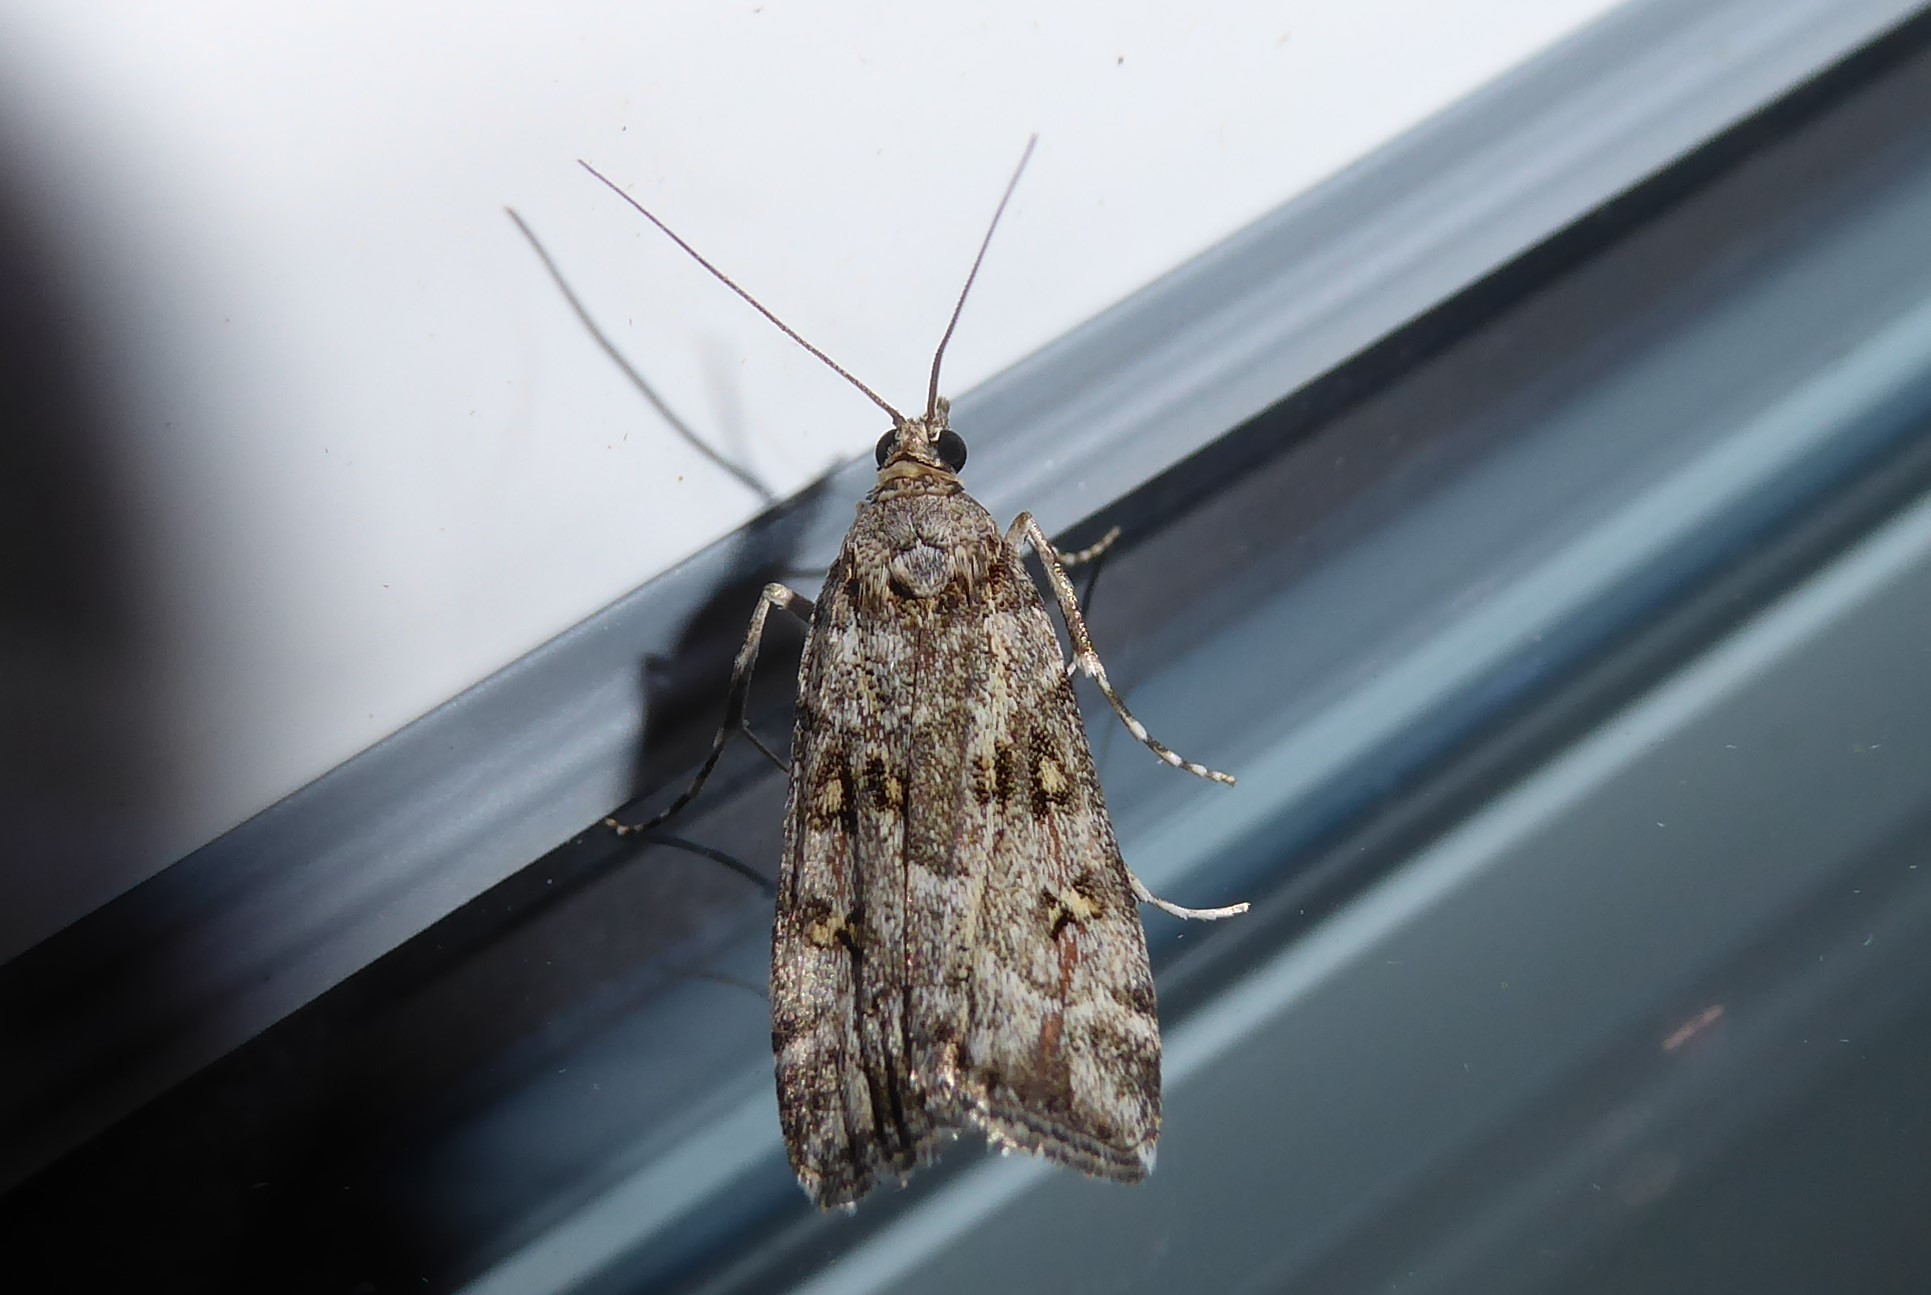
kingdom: Animalia
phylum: Arthropoda
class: Insecta
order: Lepidoptera
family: Crambidae
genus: Eudonia
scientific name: Eudonia diphtheralis
